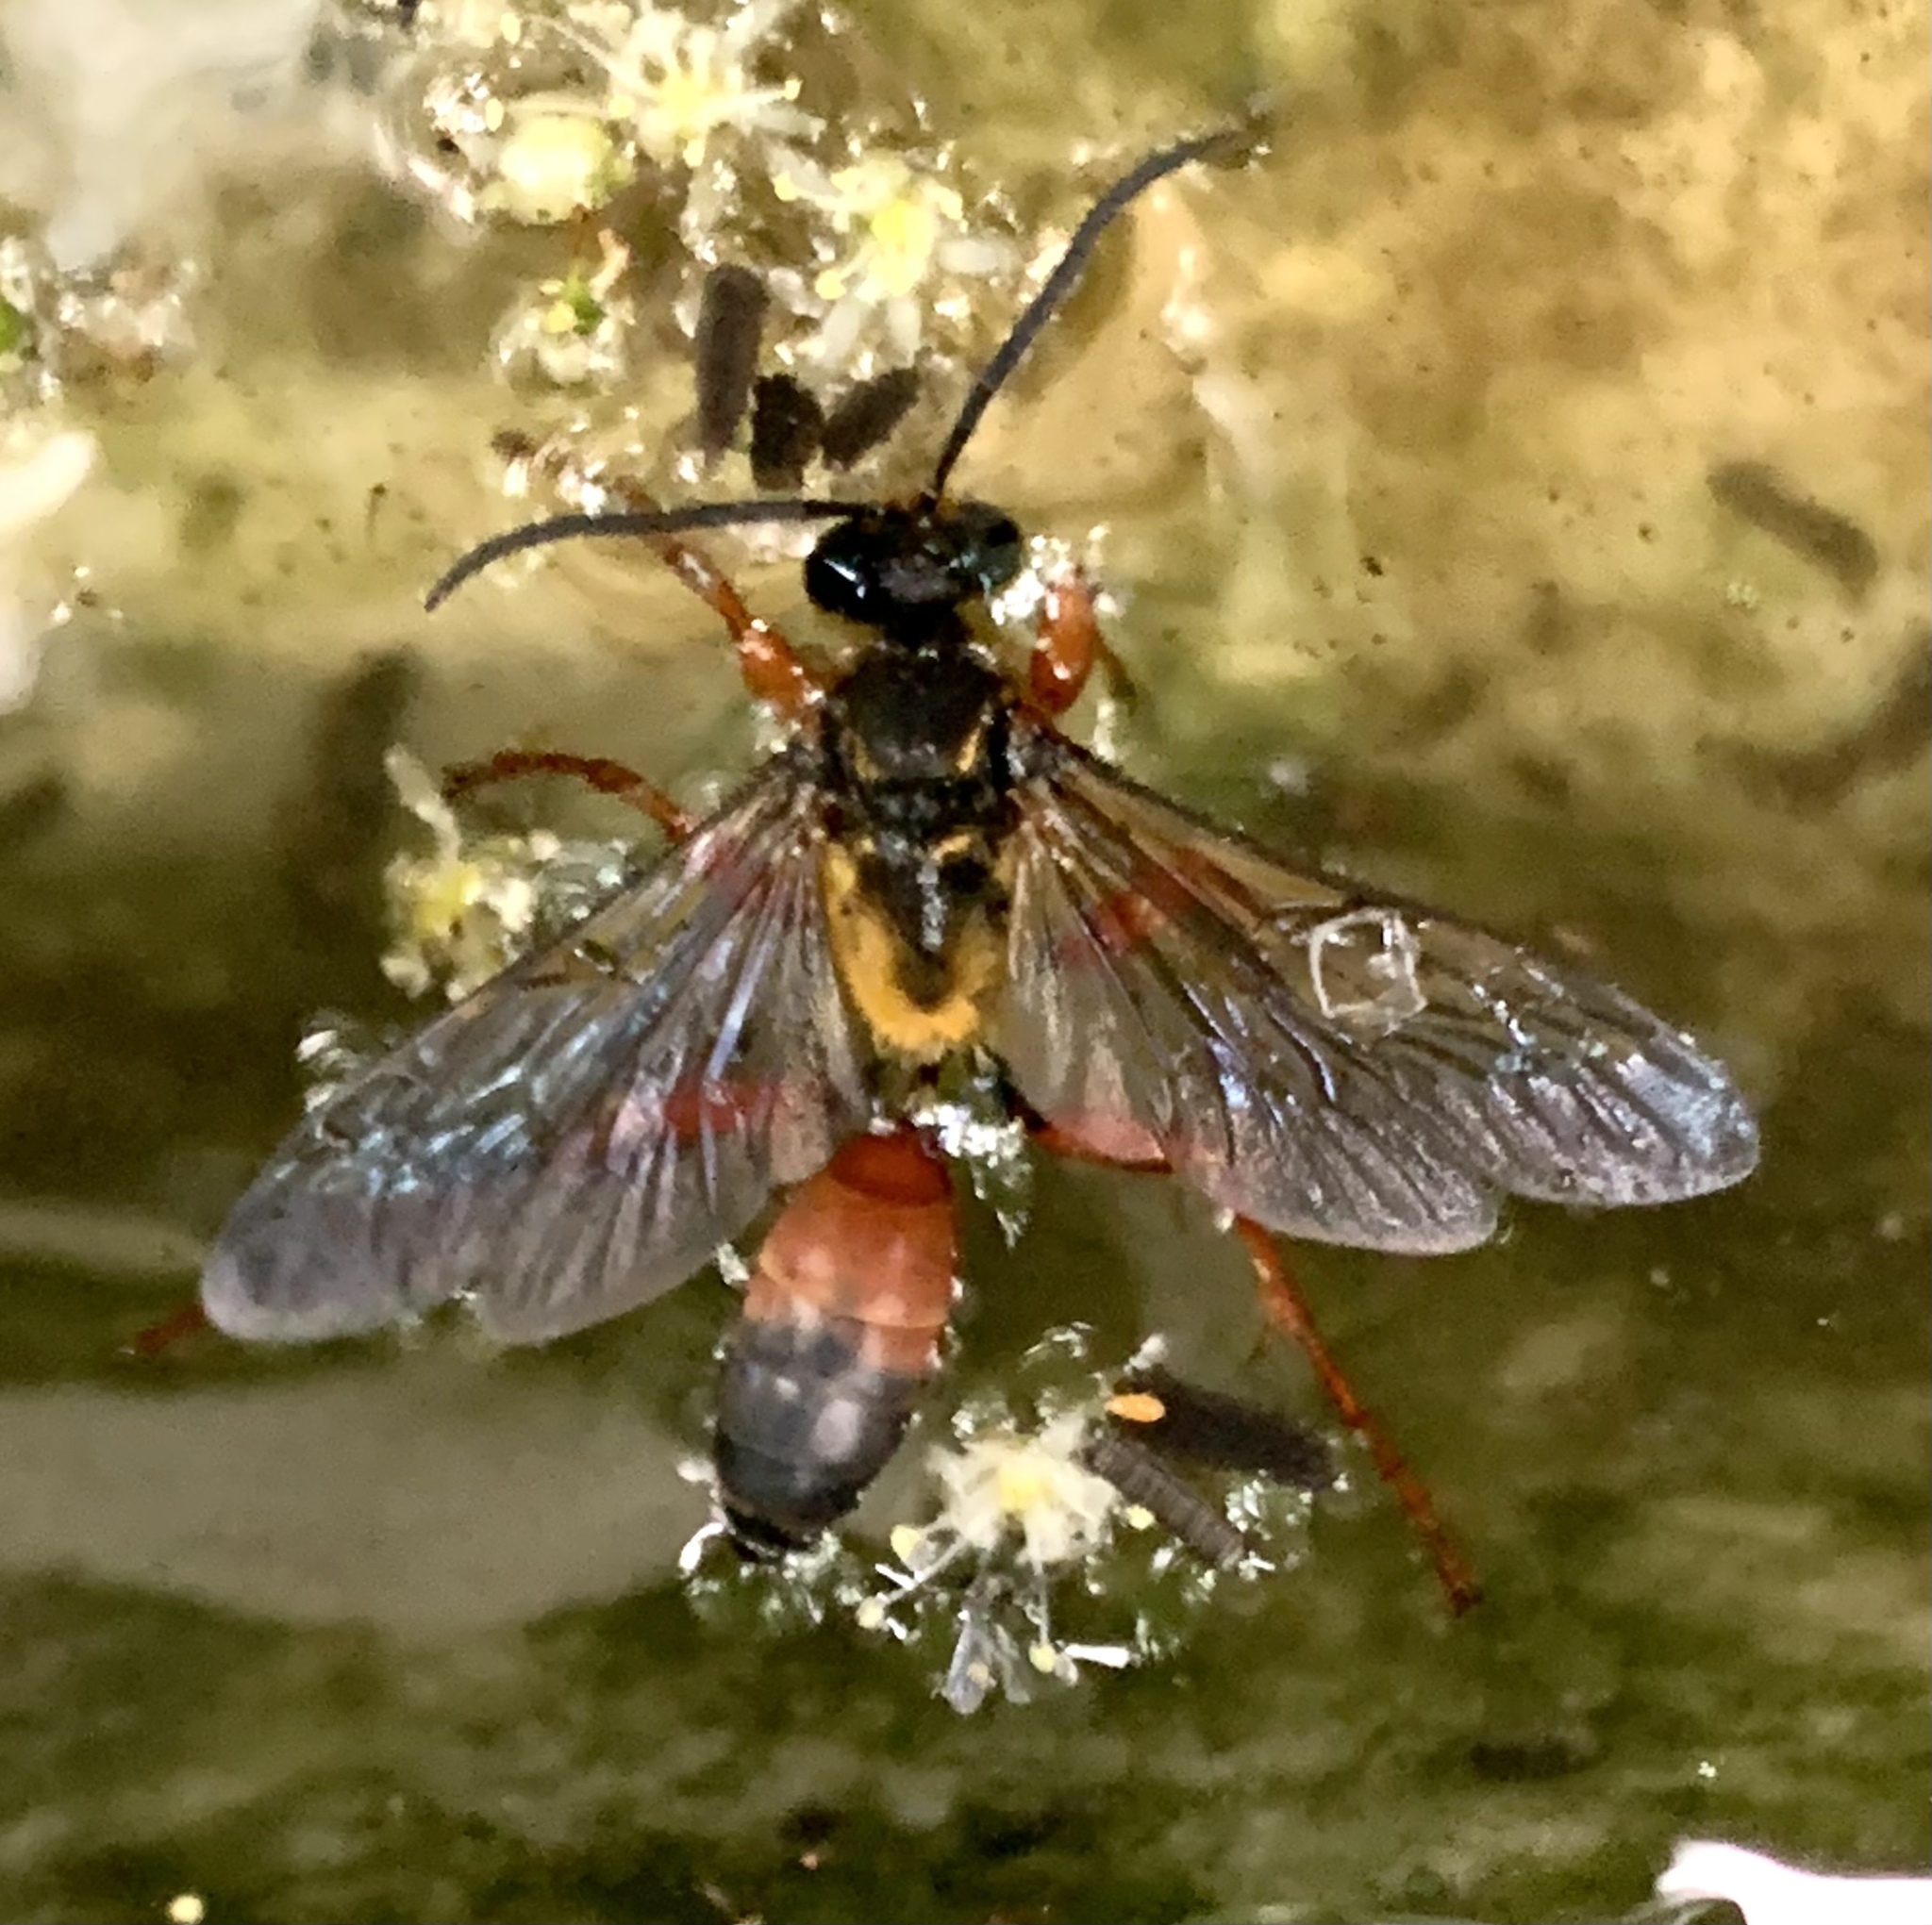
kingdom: Animalia
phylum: Arthropoda
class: Insecta
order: Hymenoptera
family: Sphecidae
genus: Sphex
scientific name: Sphex ichneumoneus
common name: Great golden digger wasp
